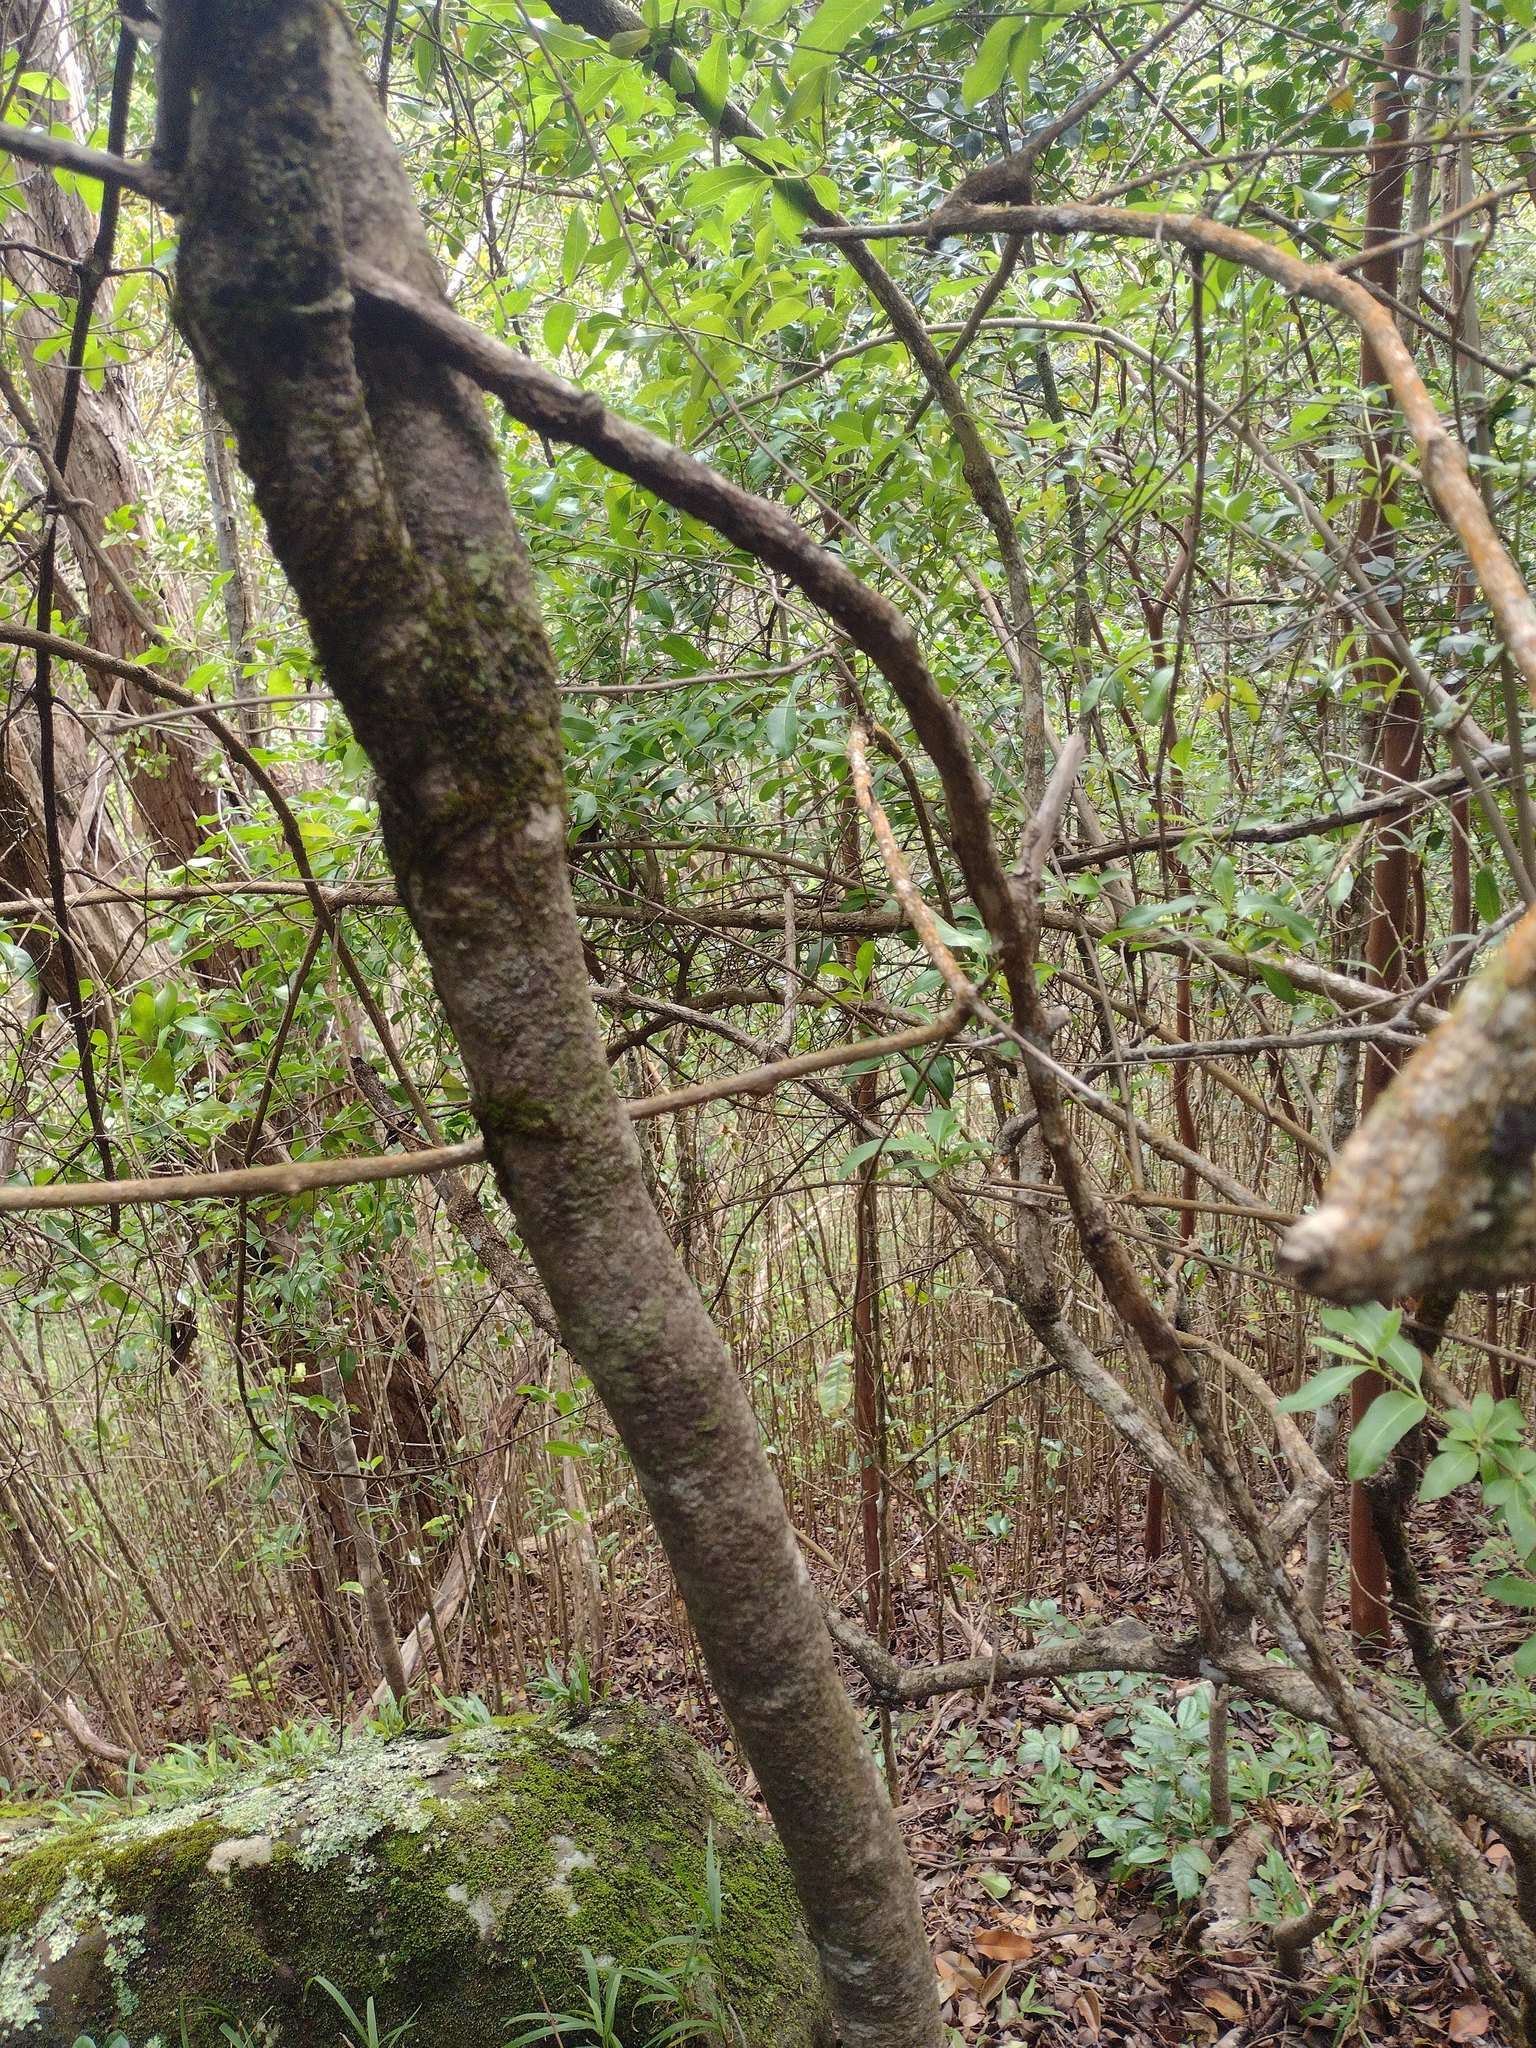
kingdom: Plantae
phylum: Tracheophyta
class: Magnoliopsida
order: Gentianales
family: Rubiaceae
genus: Coprosma
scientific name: Coprosma foliosa
